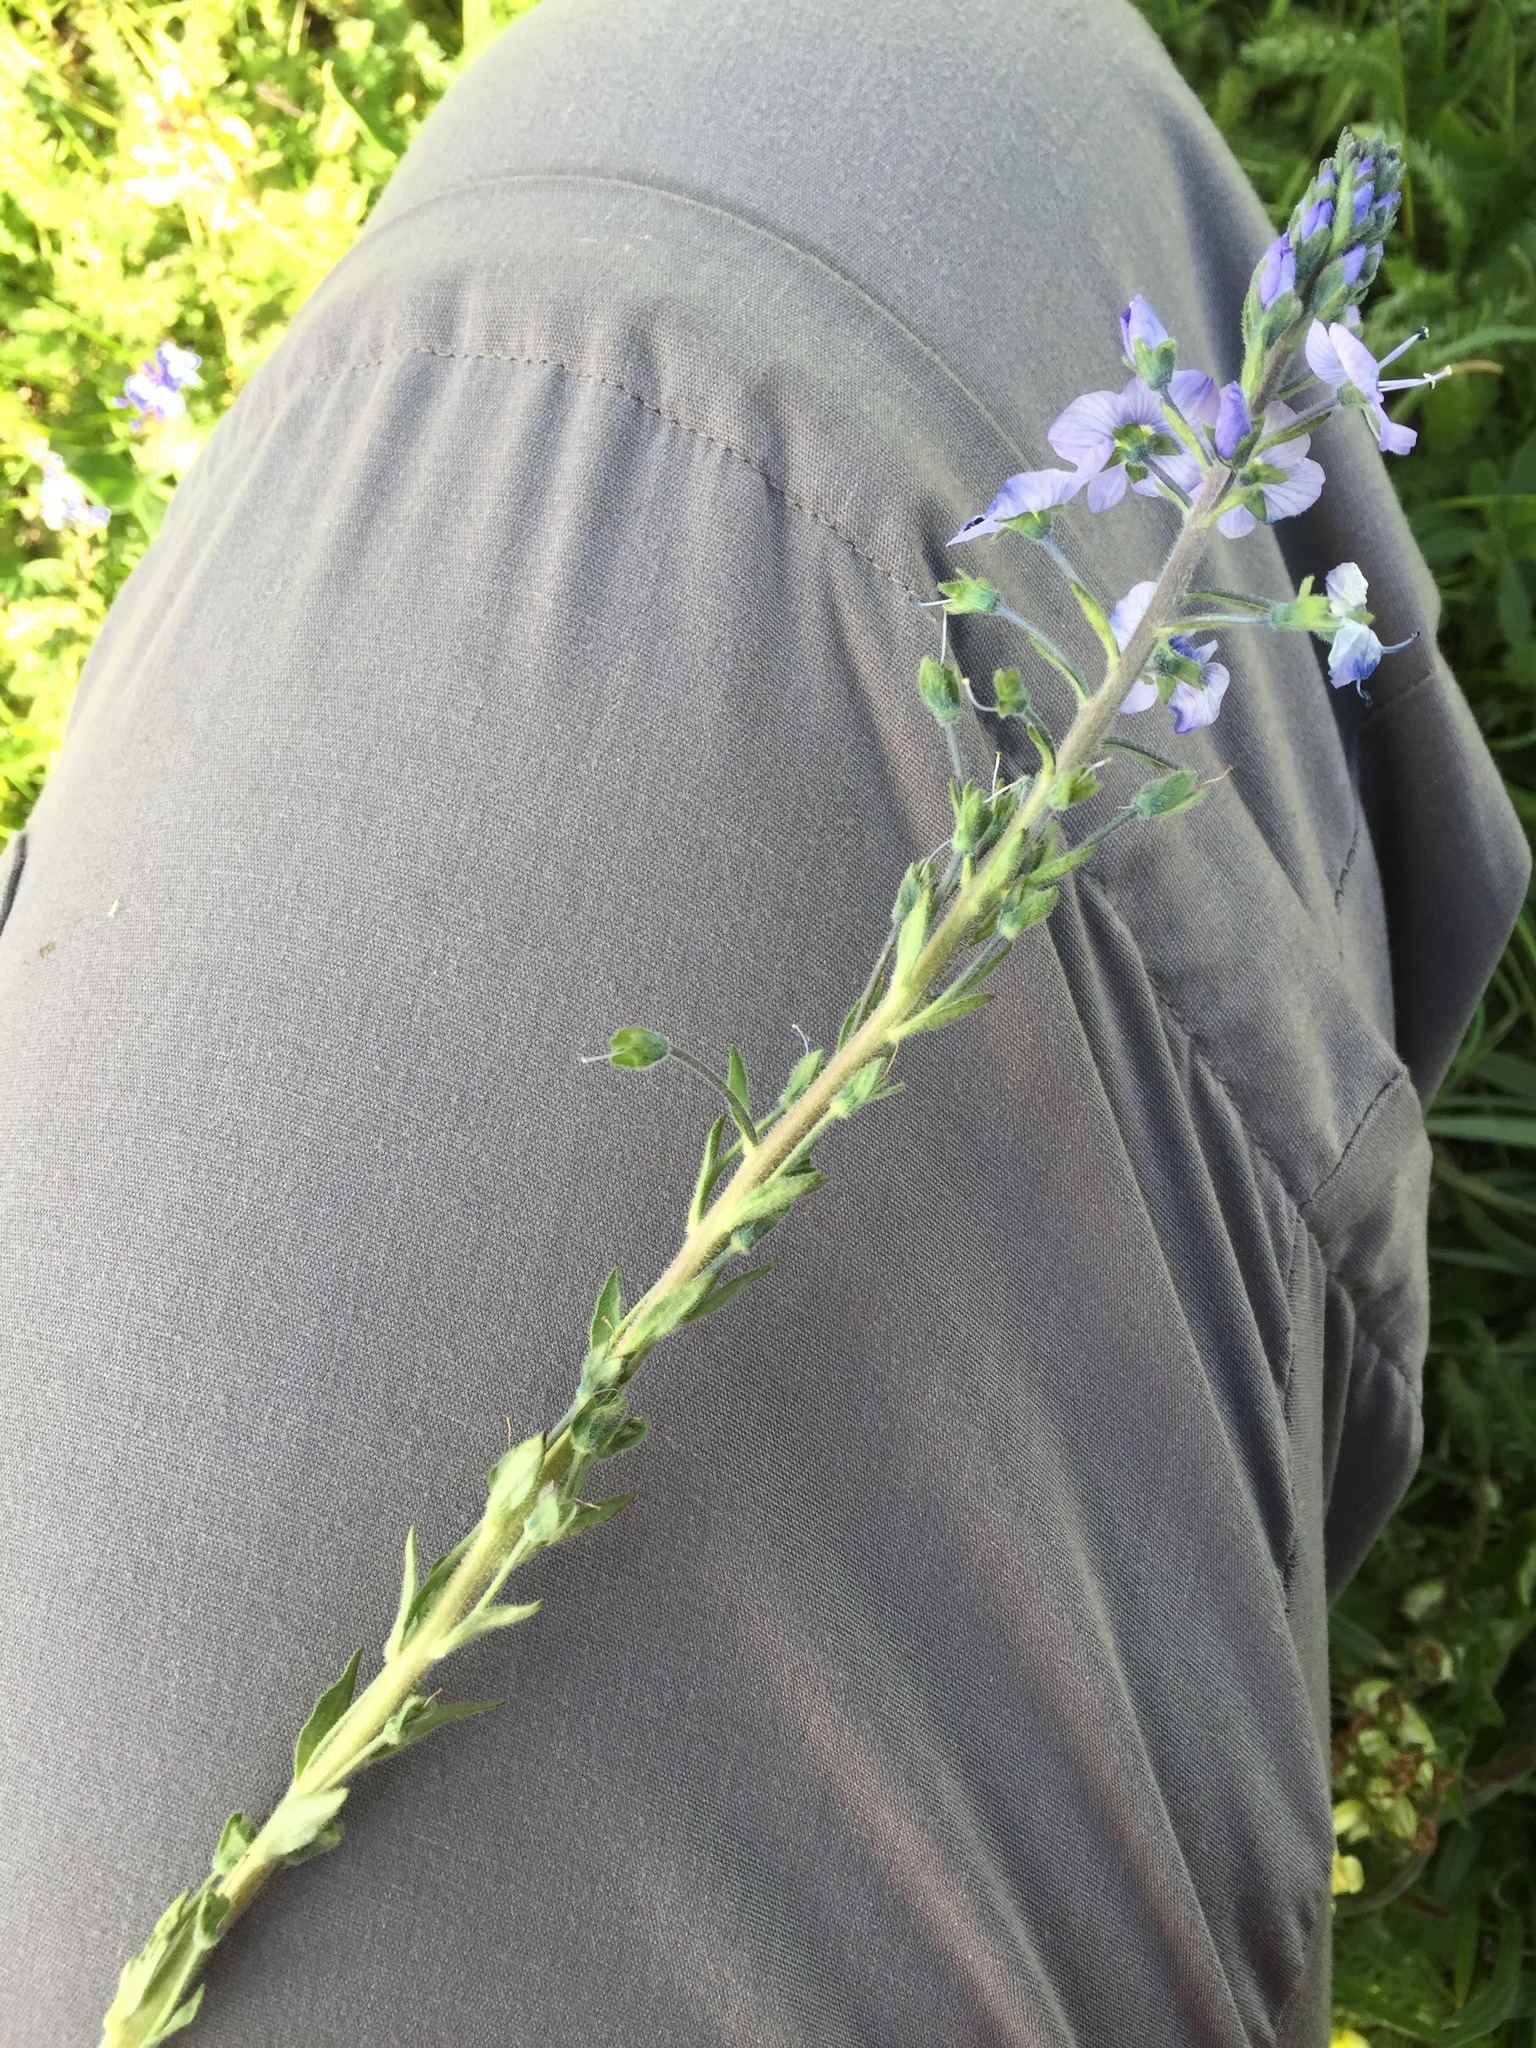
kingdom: Plantae
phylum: Tracheophyta
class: Magnoliopsida
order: Lamiales
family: Plantaginaceae
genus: Veronica
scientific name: Veronica gentianoides
